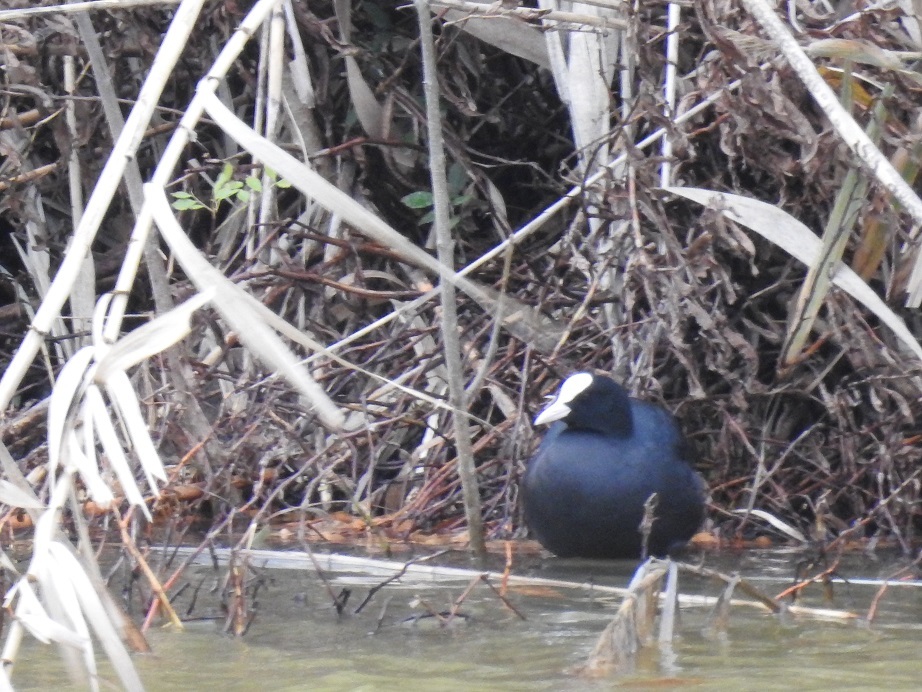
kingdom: Animalia
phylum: Chordata
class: Aves
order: Gruiformes
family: Rallidae
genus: Fulica
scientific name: Fulica atra
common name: Eurasian coot
